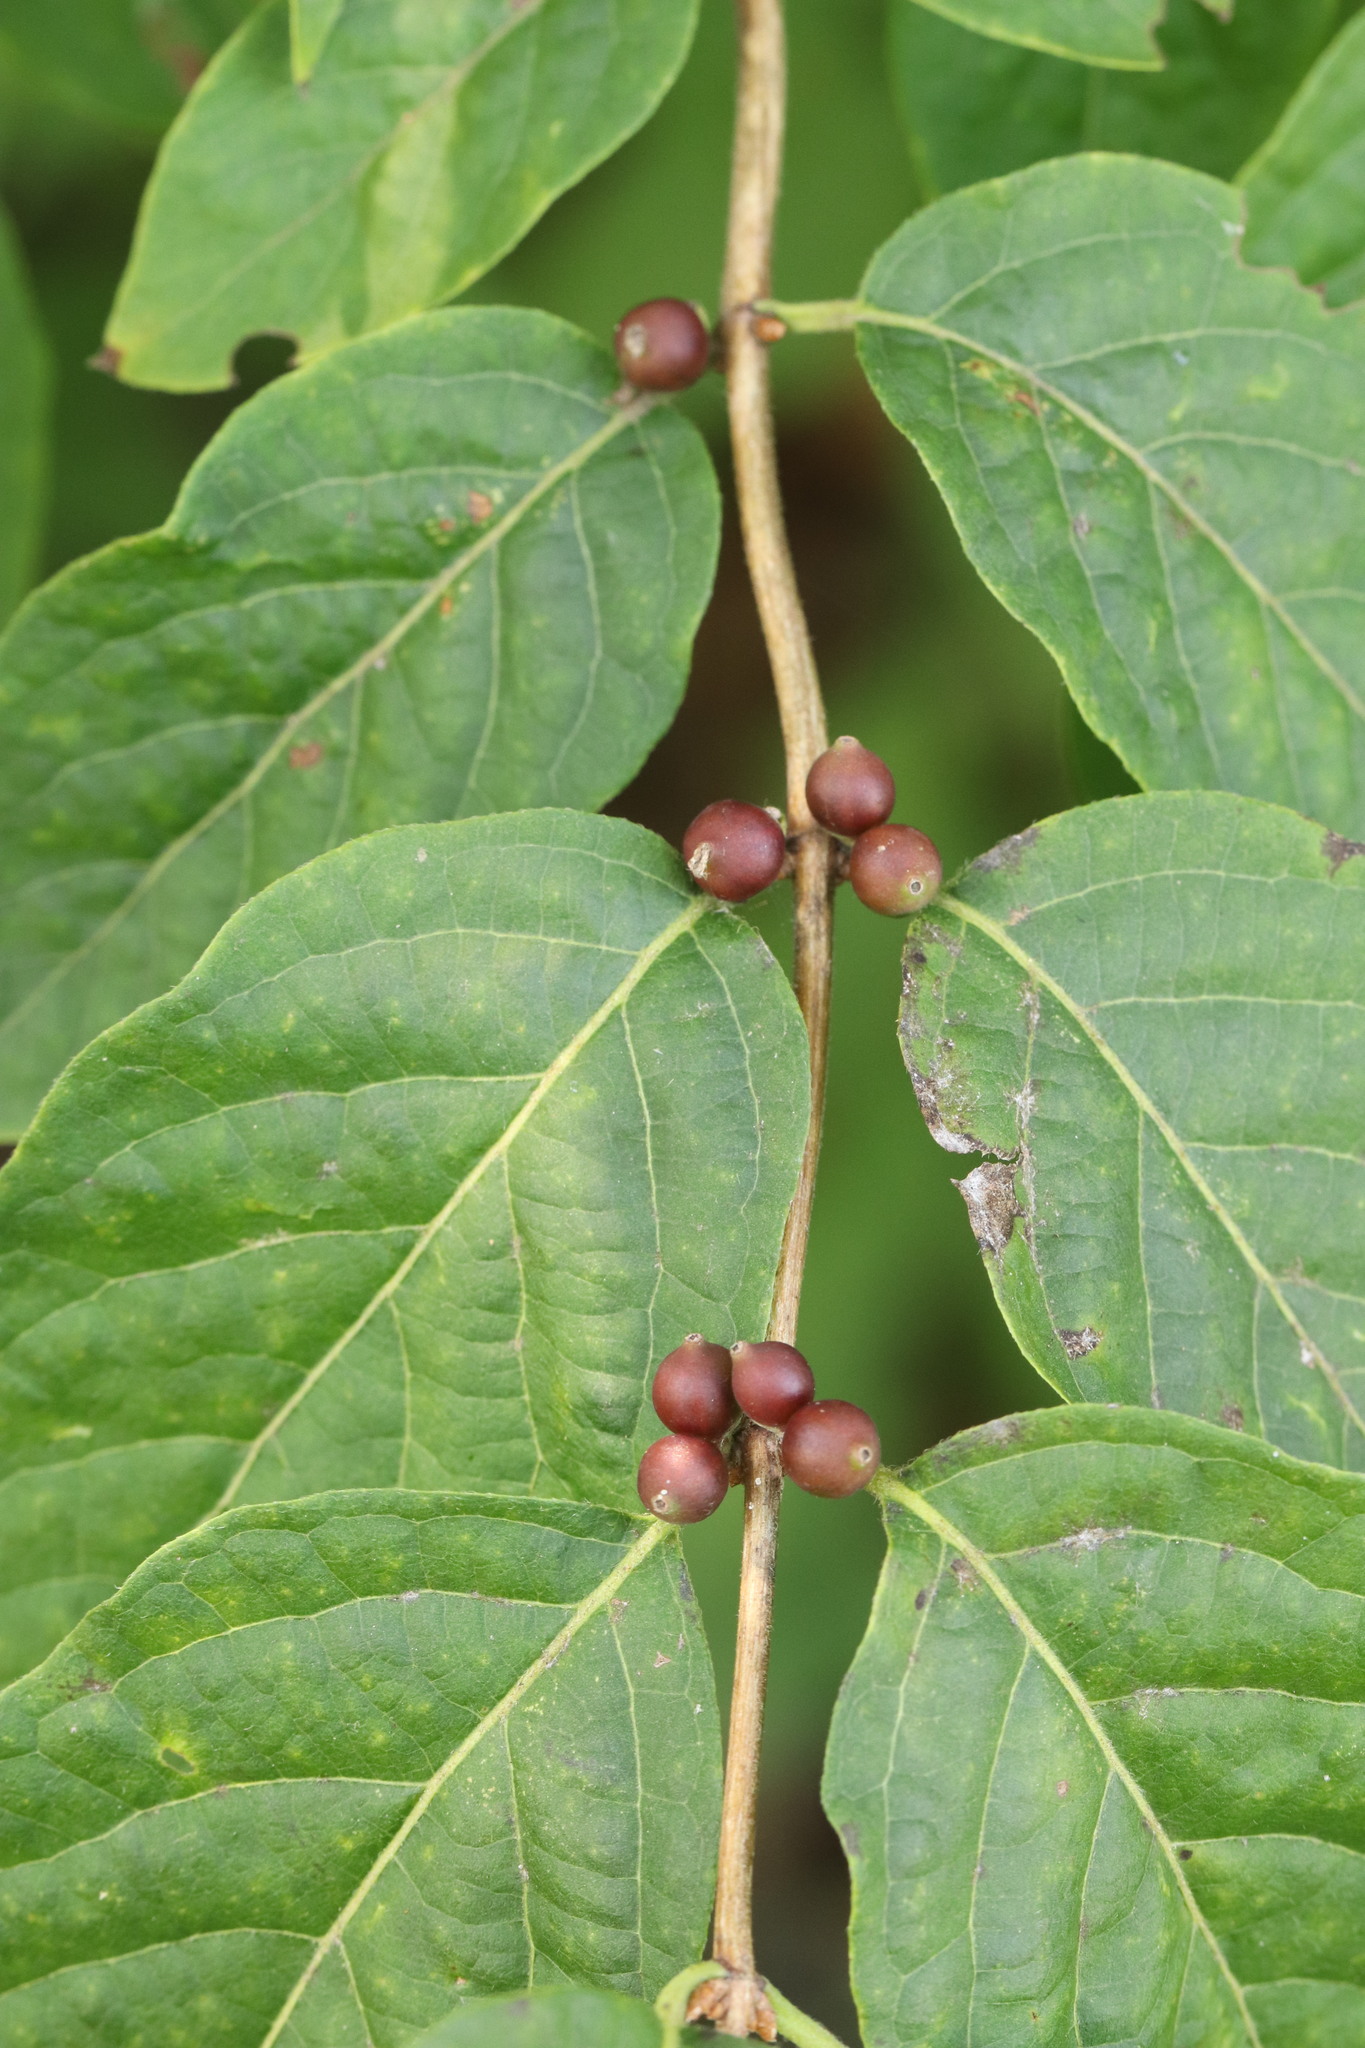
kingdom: Plantae
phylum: Tracheophyta
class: Magnoliopsida
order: Dipsacales
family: Caprifoliaceae
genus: Lonicera
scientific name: Lonicera maackii
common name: Amur honeysuckle
